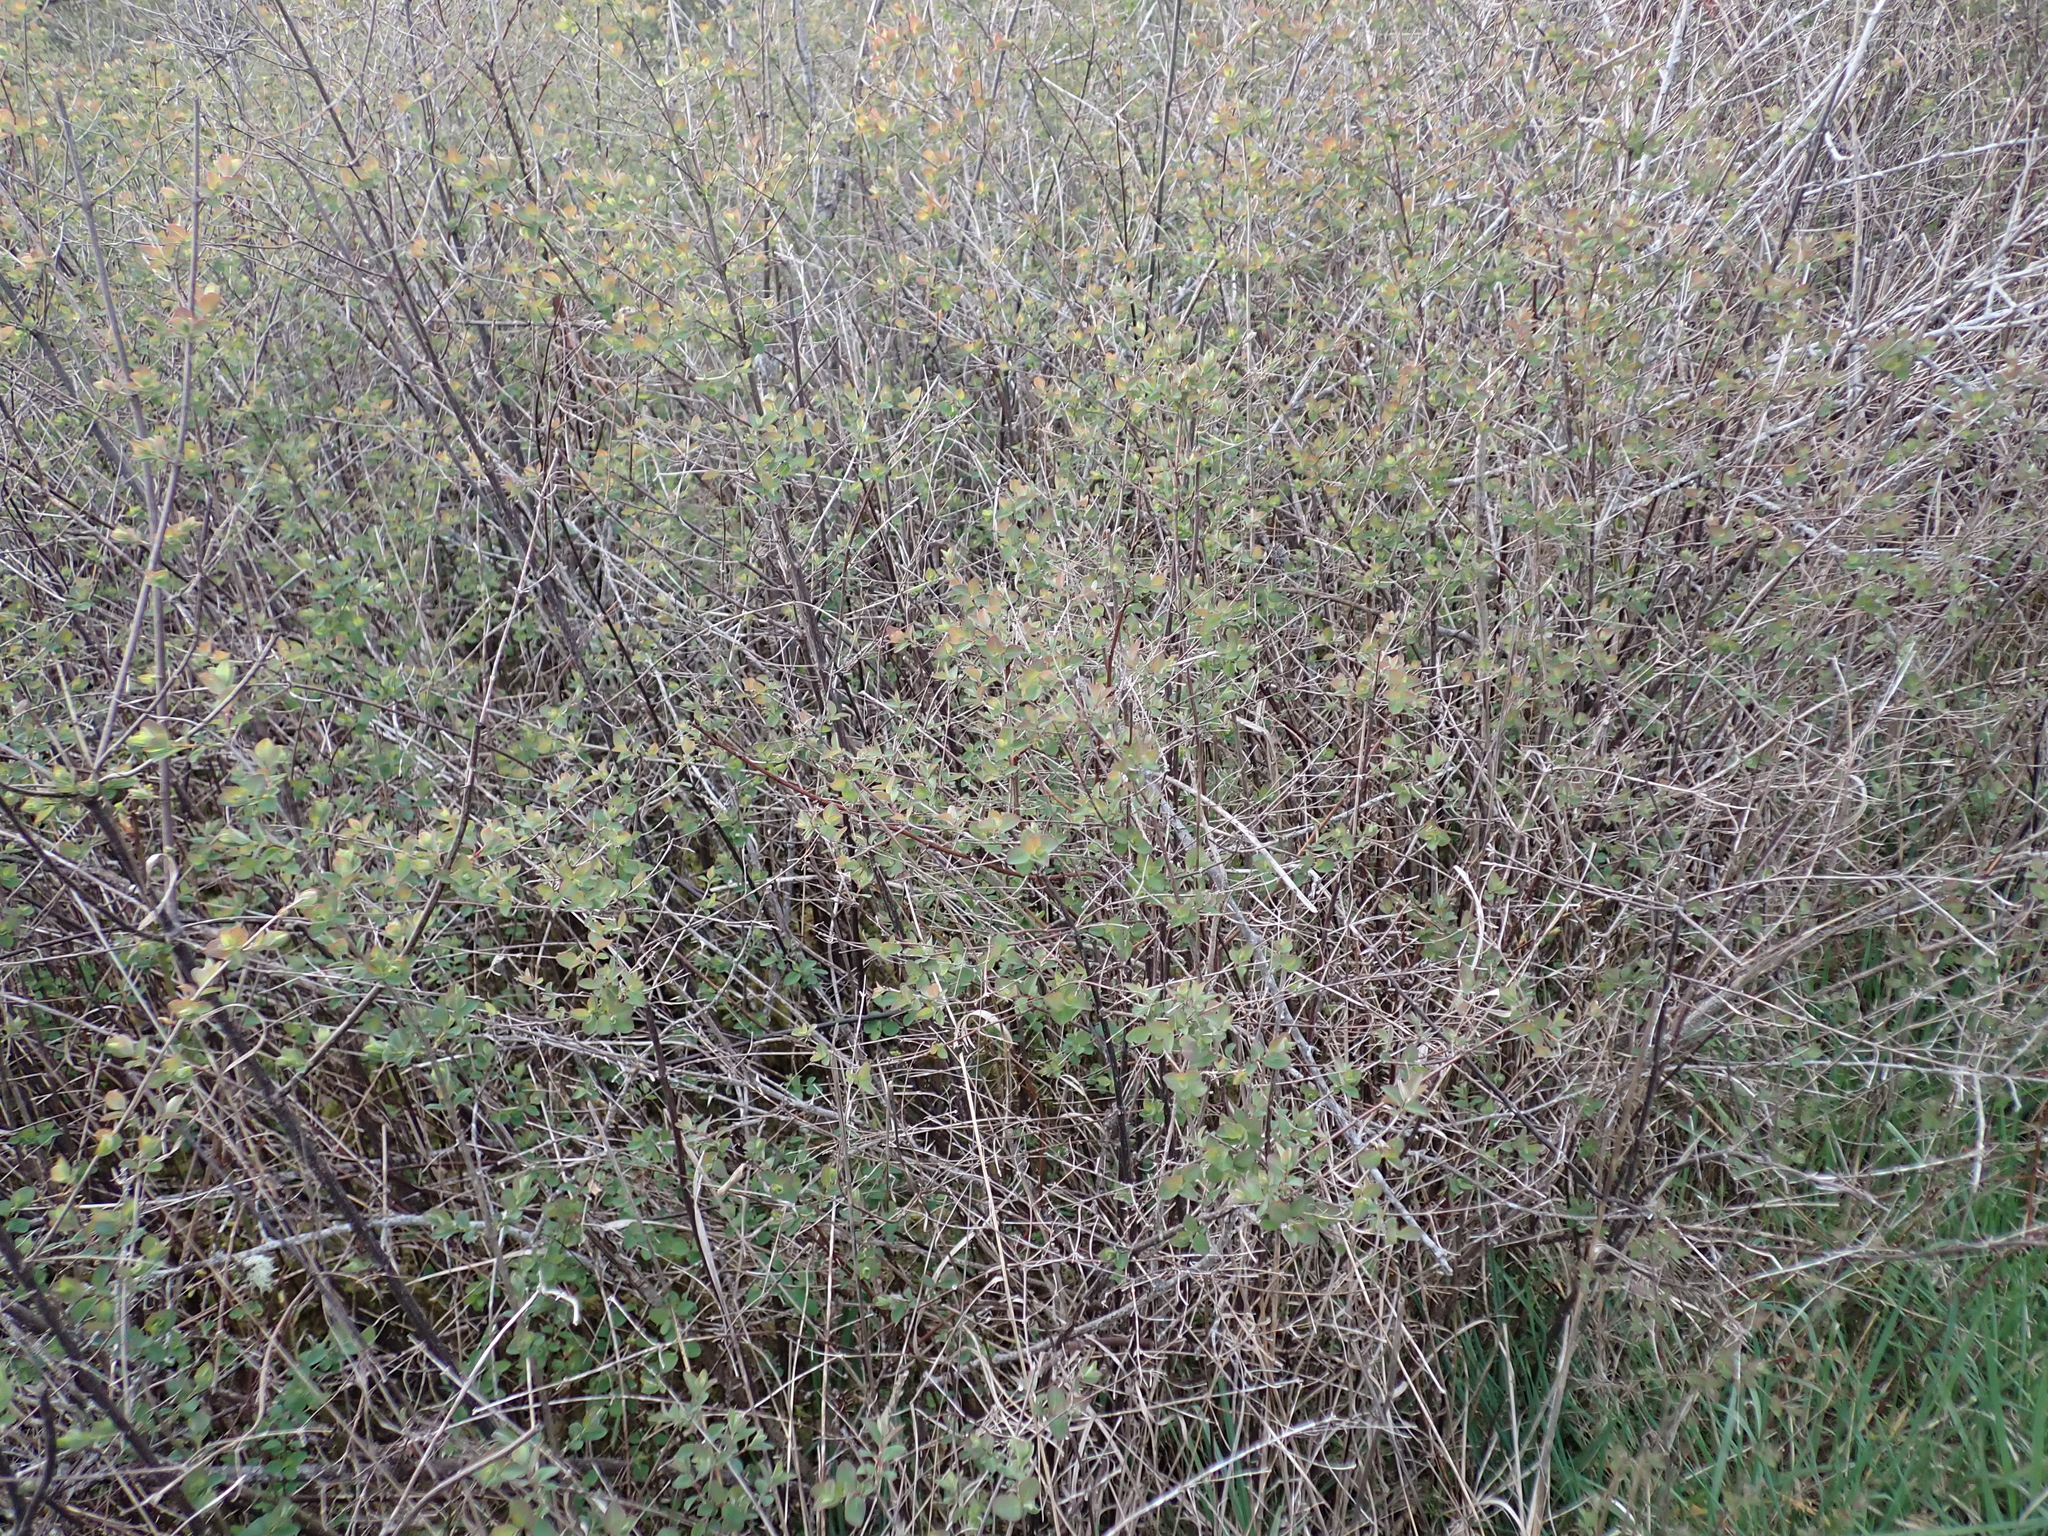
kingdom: Plantae
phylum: Tracheophyta
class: Magnoliopsida
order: Dipsacales
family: Caprifoliaceae
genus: Symphoricarpos
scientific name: Symphoricarpos albus
